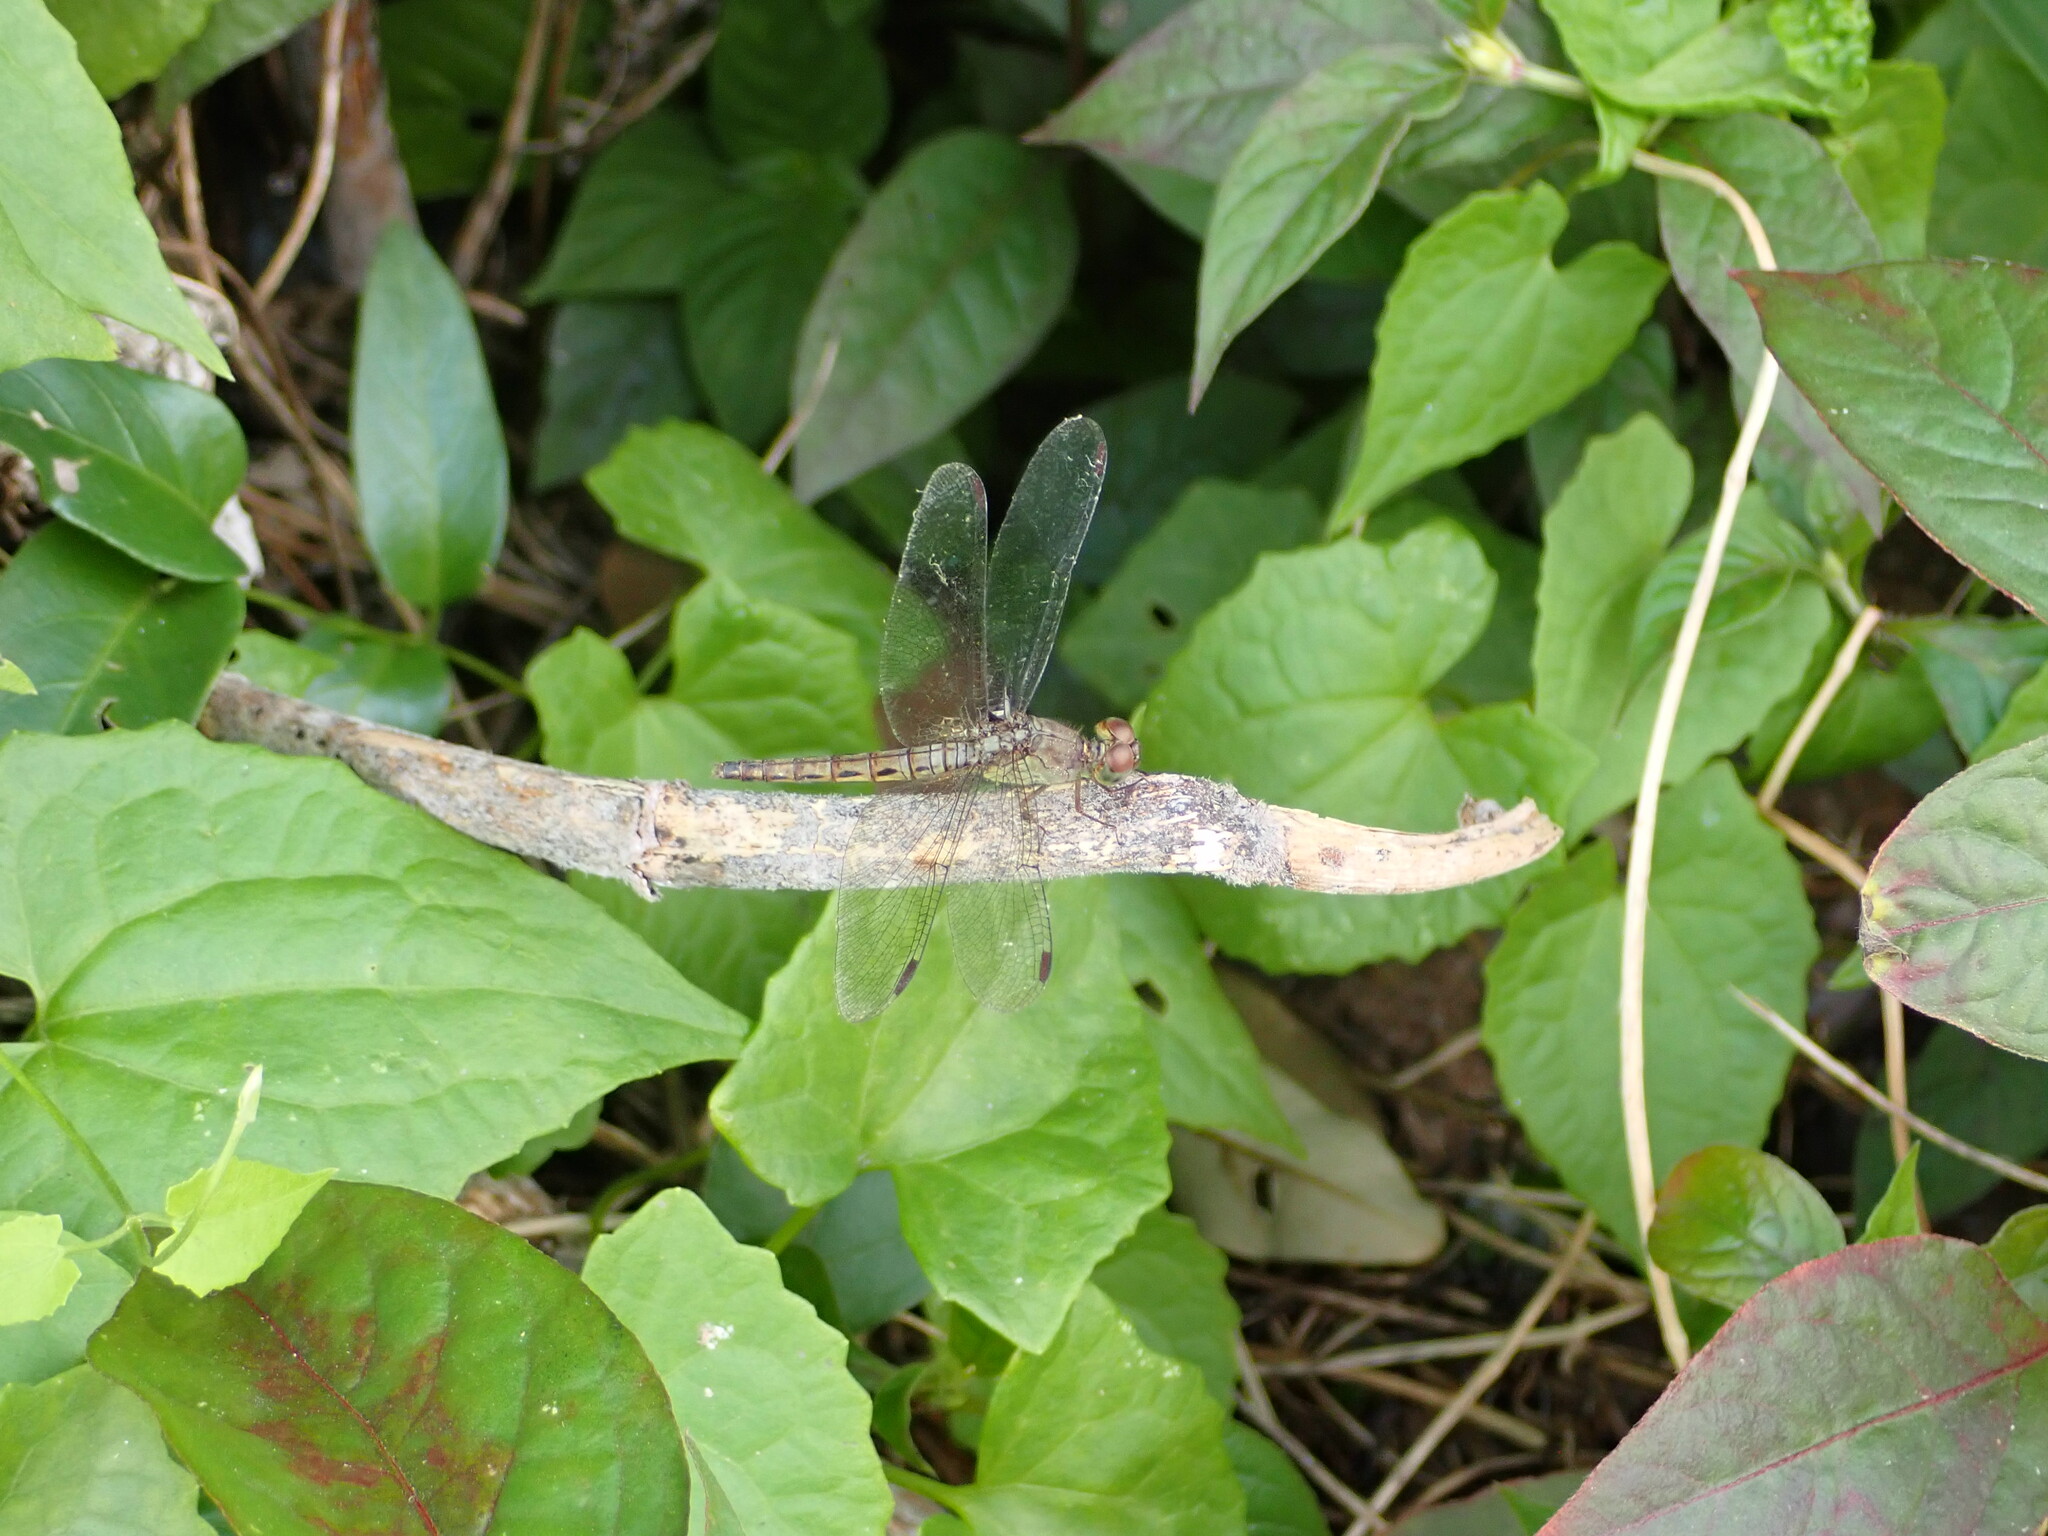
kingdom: Animalia
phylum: Arthropoda
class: Insecta
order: Odonata
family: Libellulidae
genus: Neurothemis
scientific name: Neurothemis fluctuans
